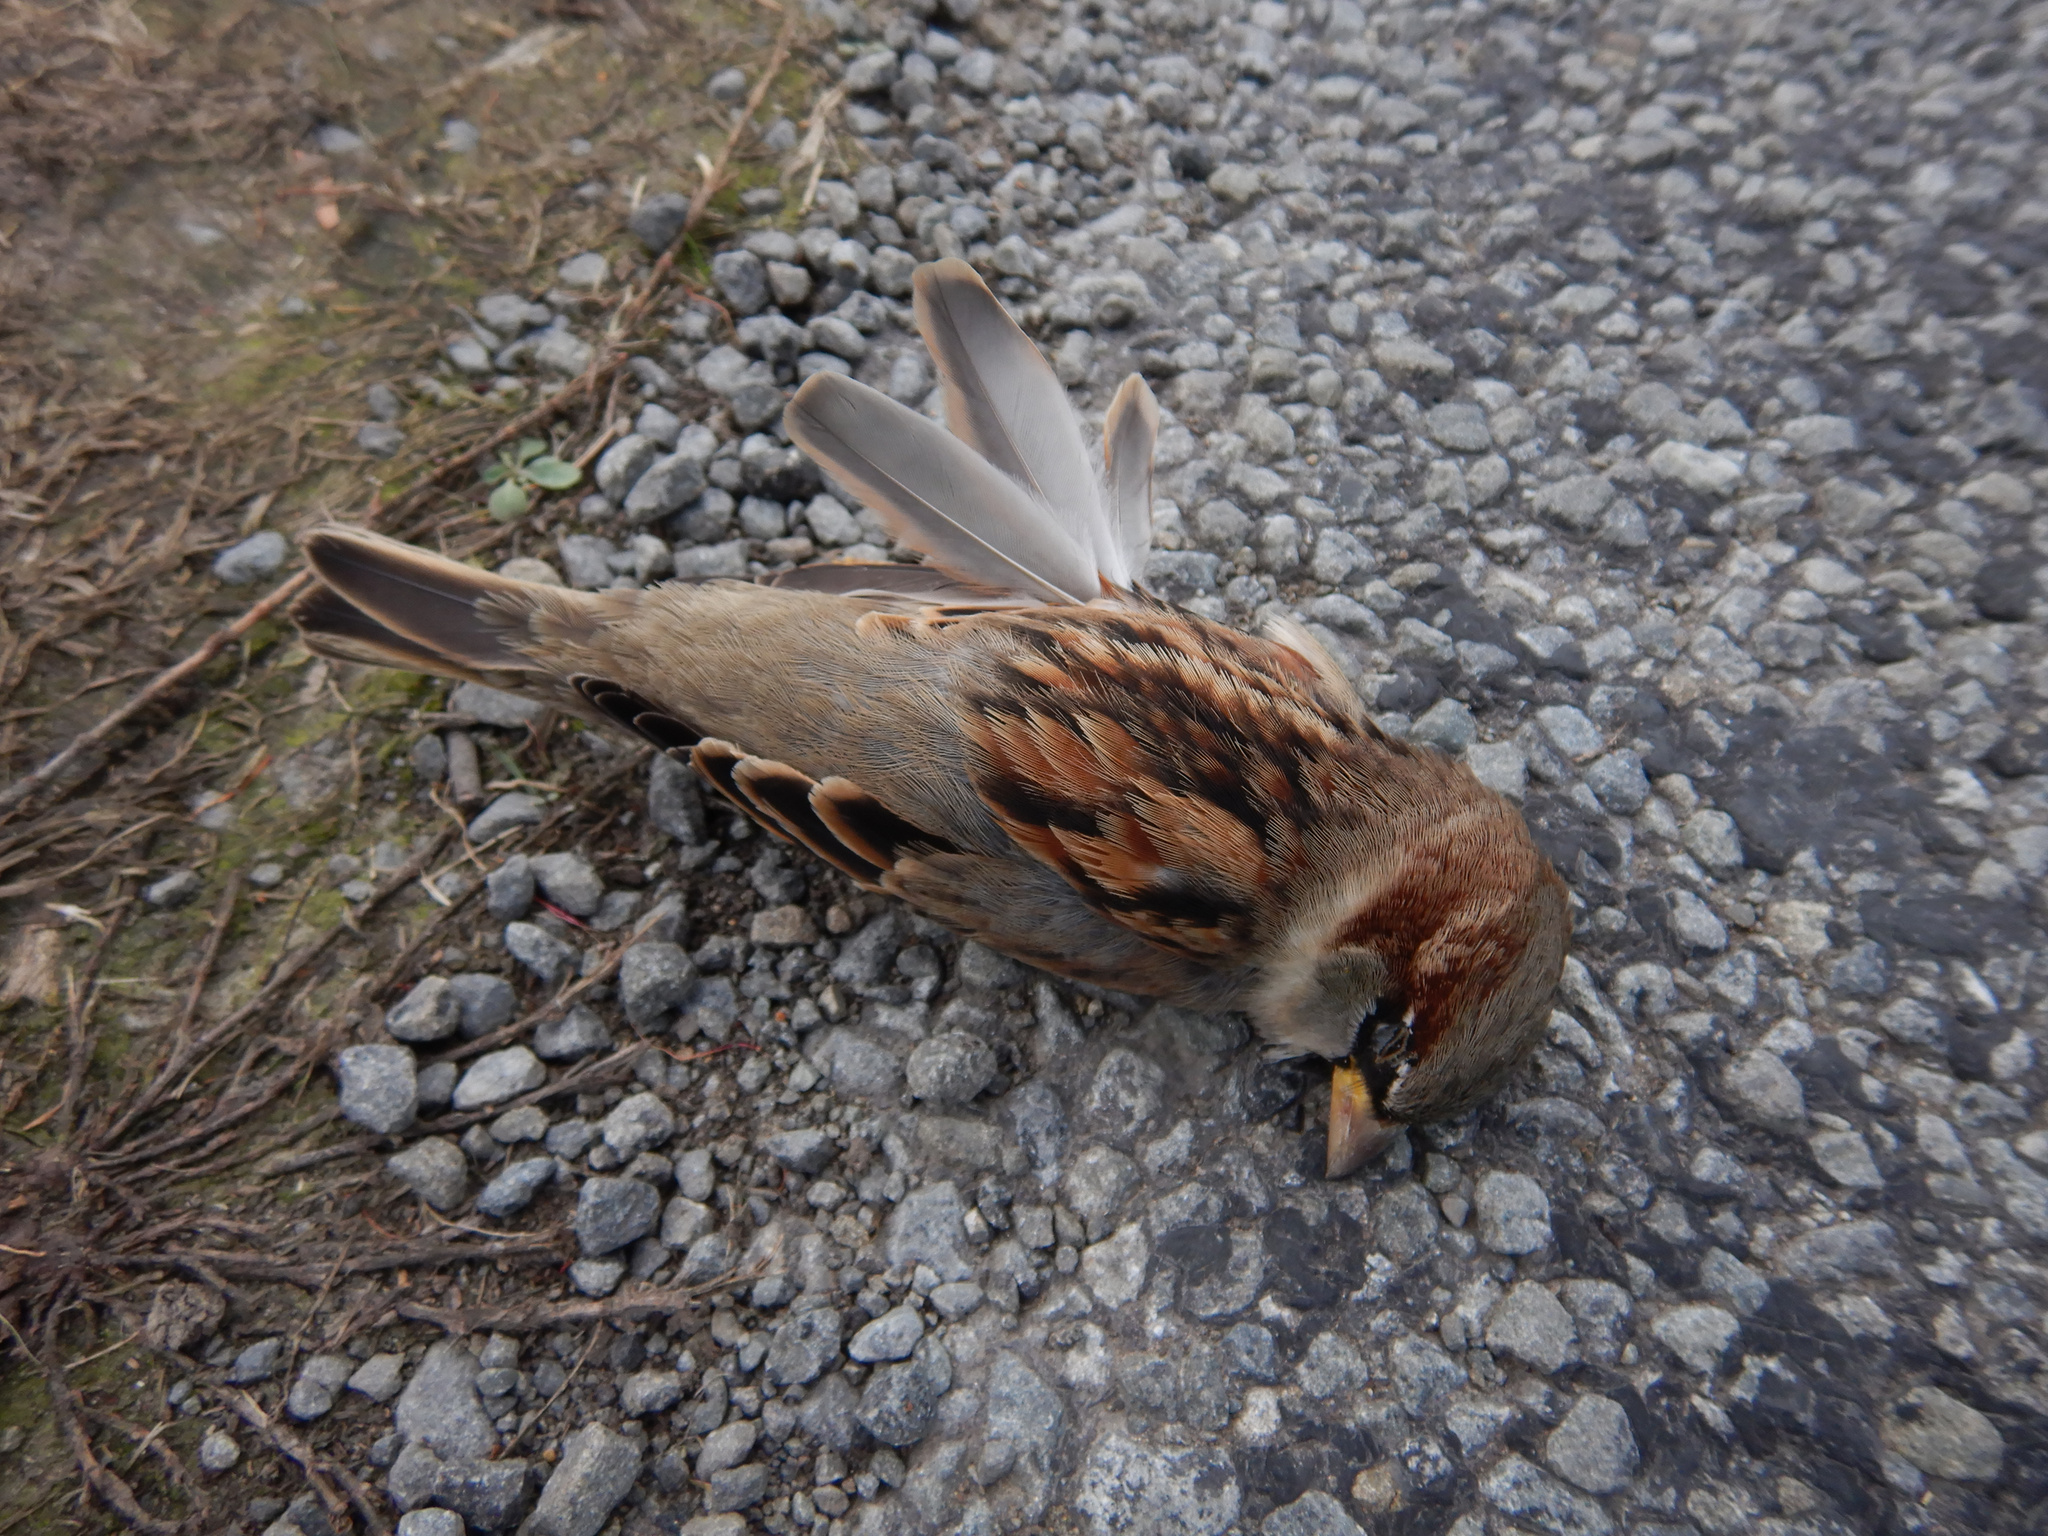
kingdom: Animalia
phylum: Chordata
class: Aves
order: Passeriformes
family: Passeridae
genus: Passer
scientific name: Passer domesticus
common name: House sparrow
